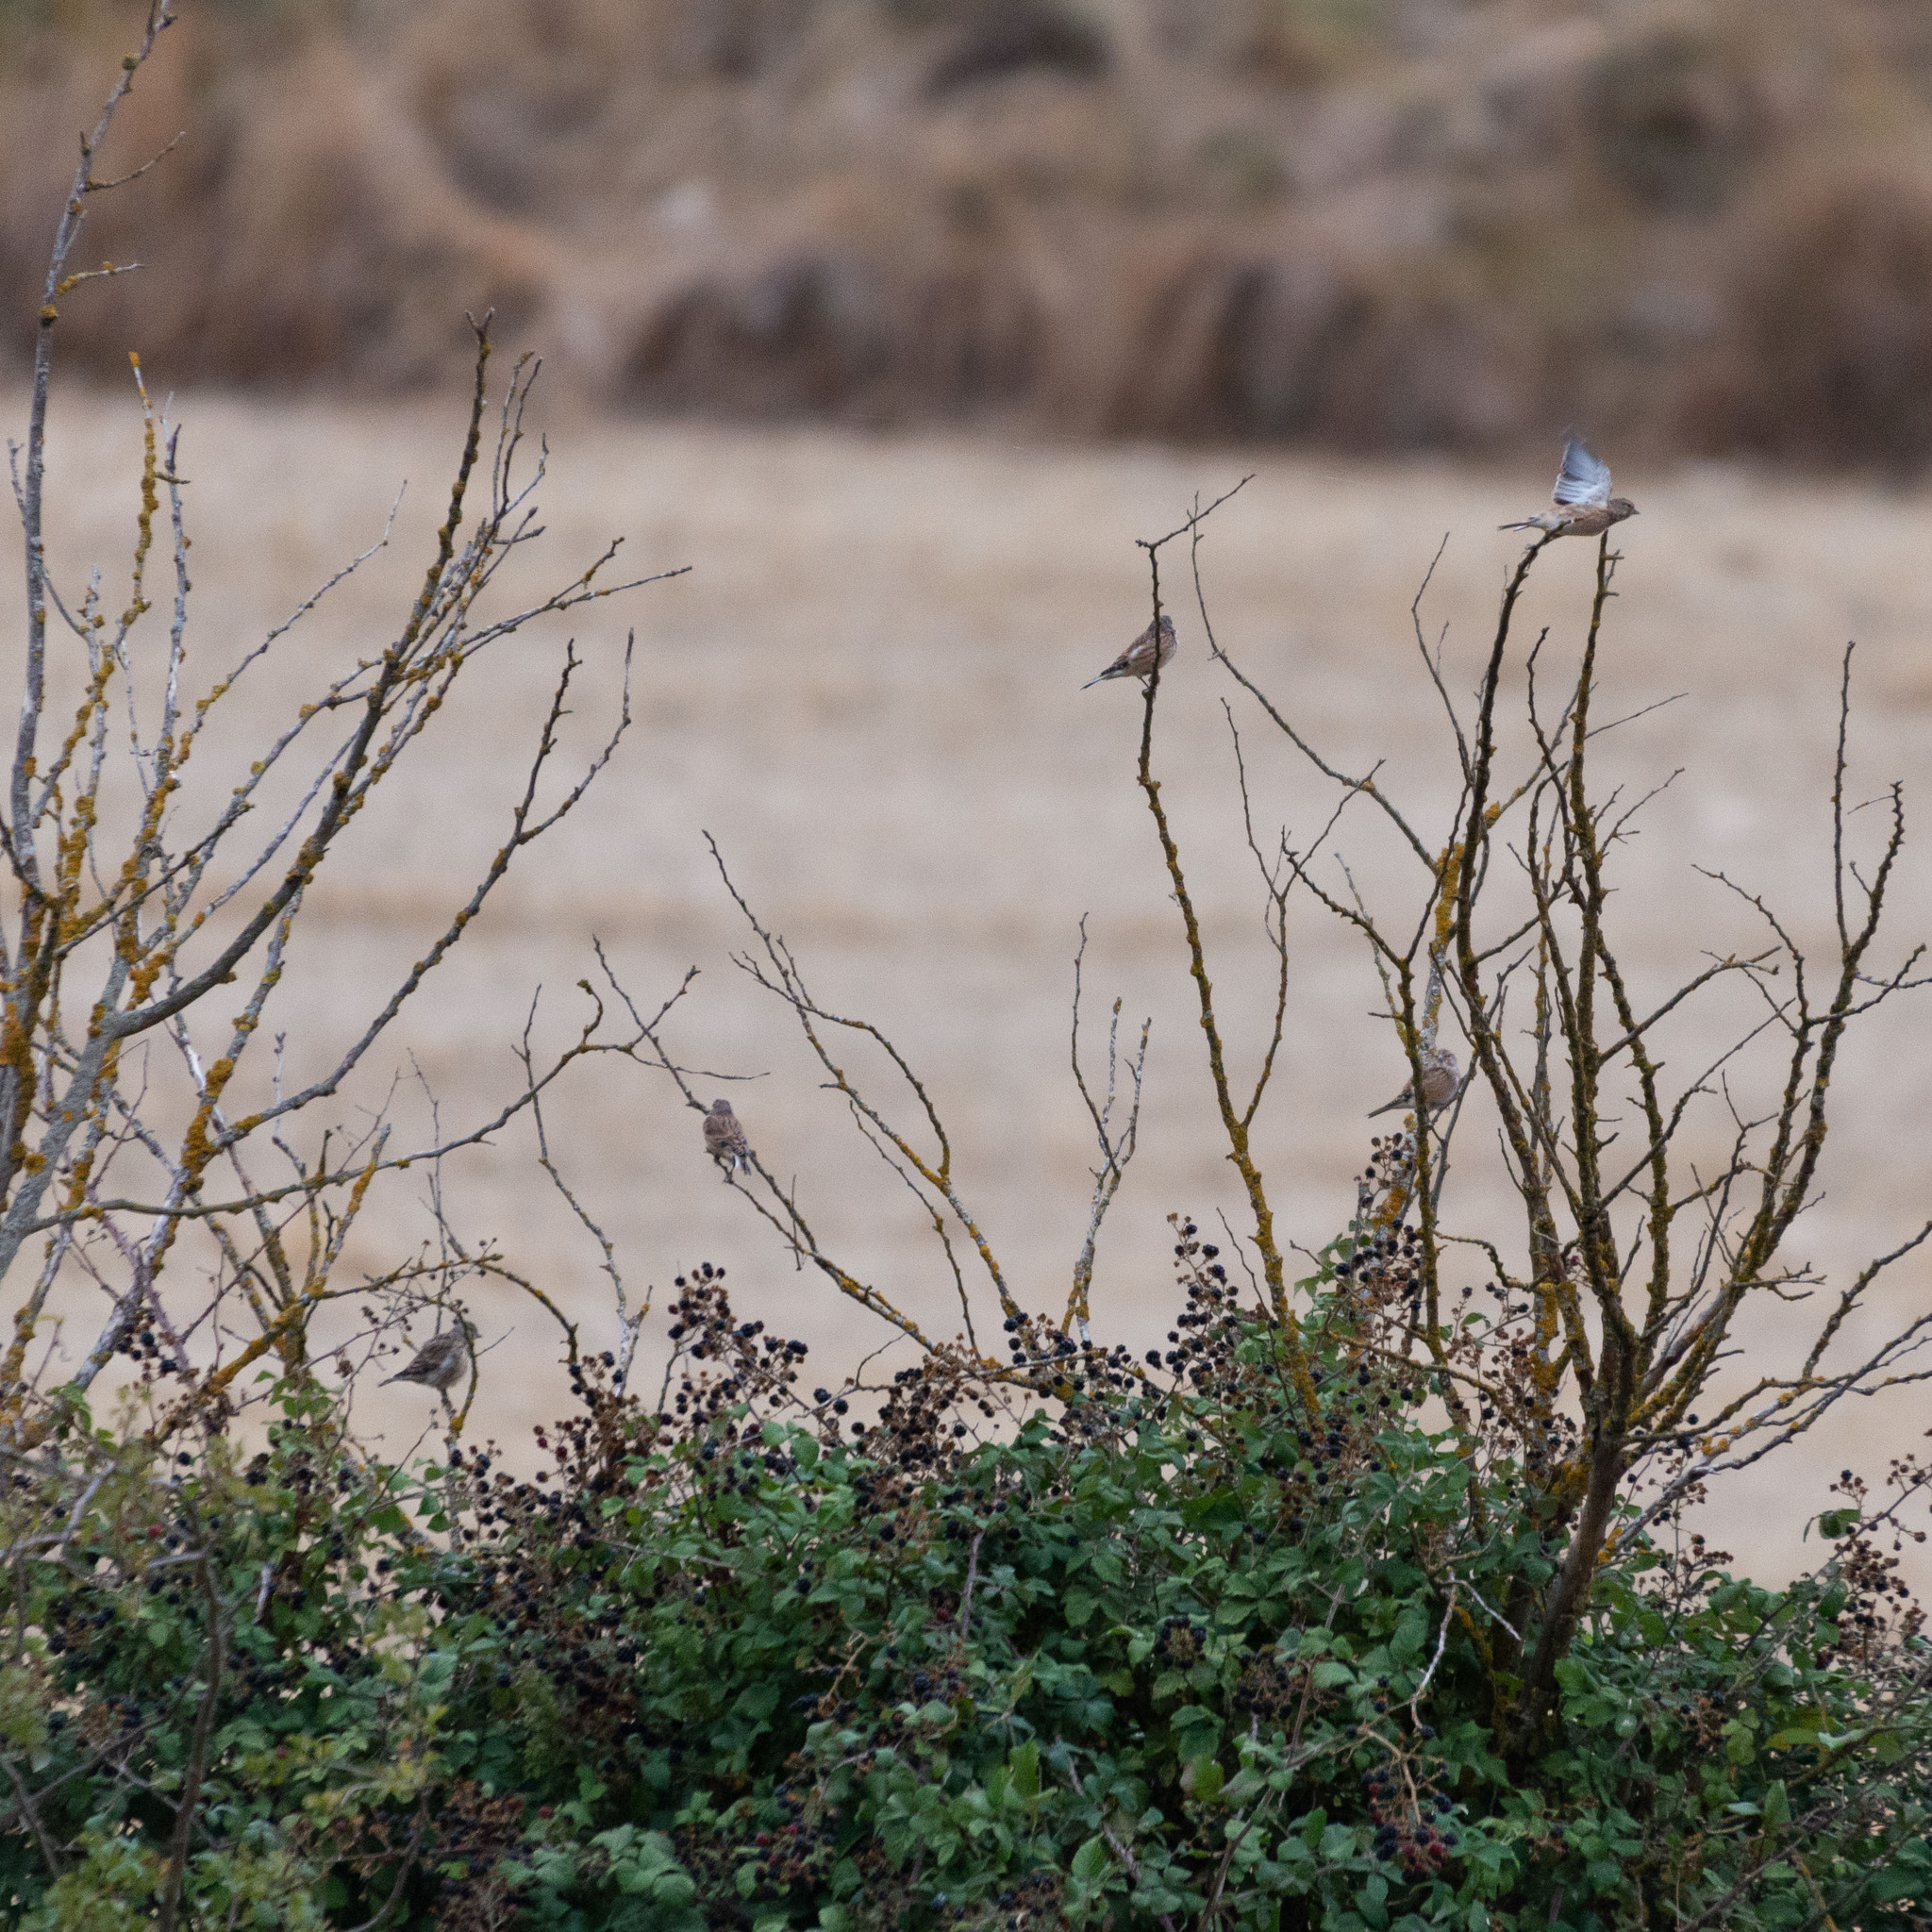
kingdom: Animalia
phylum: Chordata
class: Aves
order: Passeriformes
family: Fringillidae
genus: Linaria
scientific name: Linaria cannabina
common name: Common linnet
